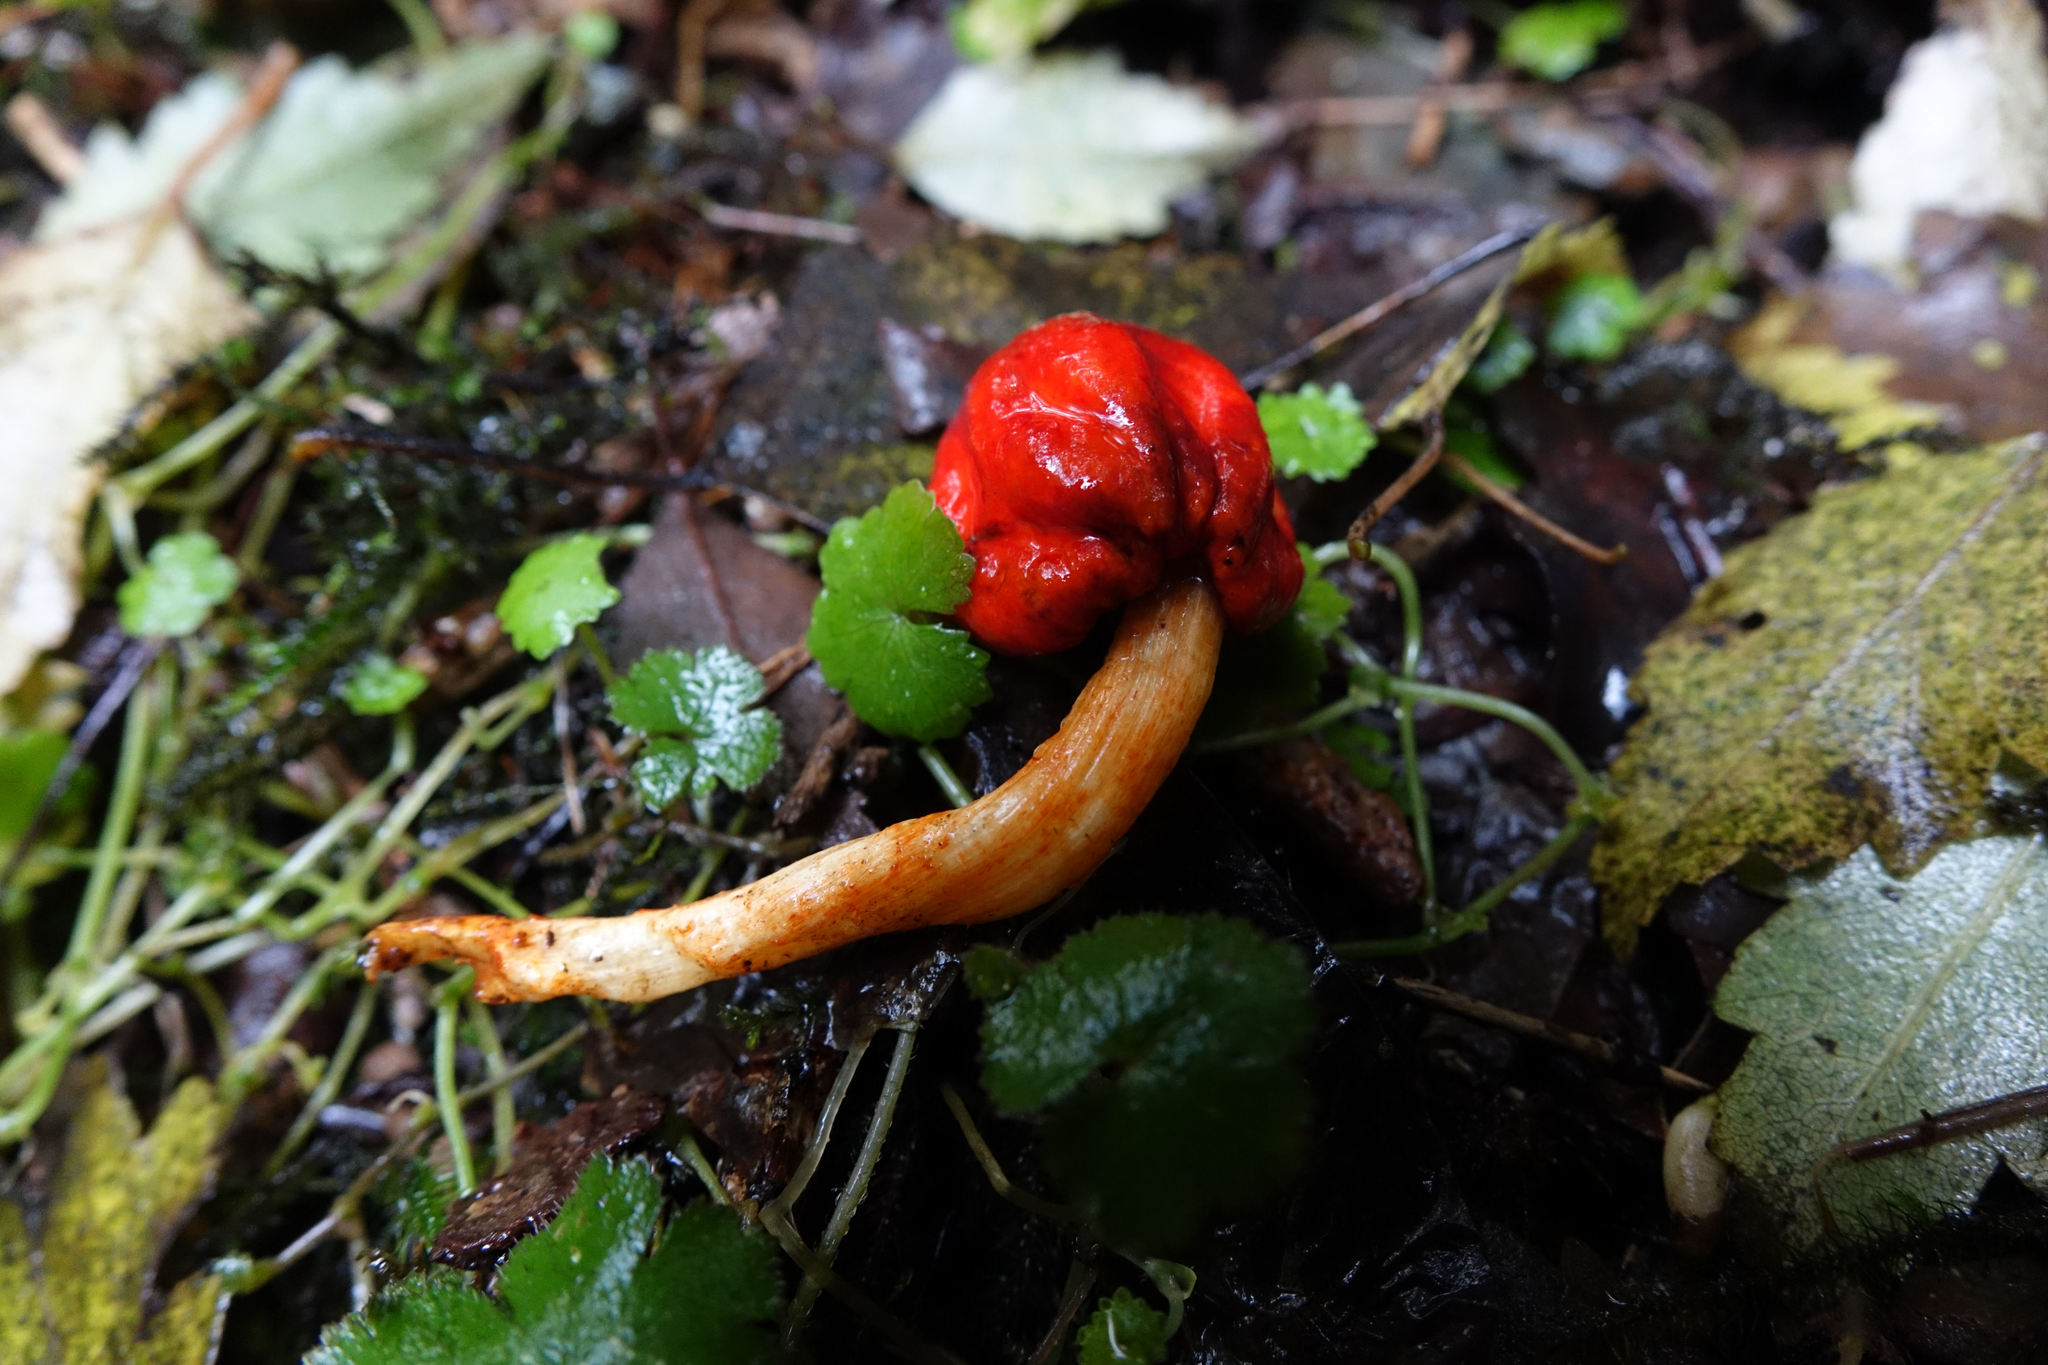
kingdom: Fungi
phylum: Basidiomycota
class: Agaricomycetes
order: Agaricales
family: Strophariaceae
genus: Leratiomyces
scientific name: Leratiomyces erythrocephalus
